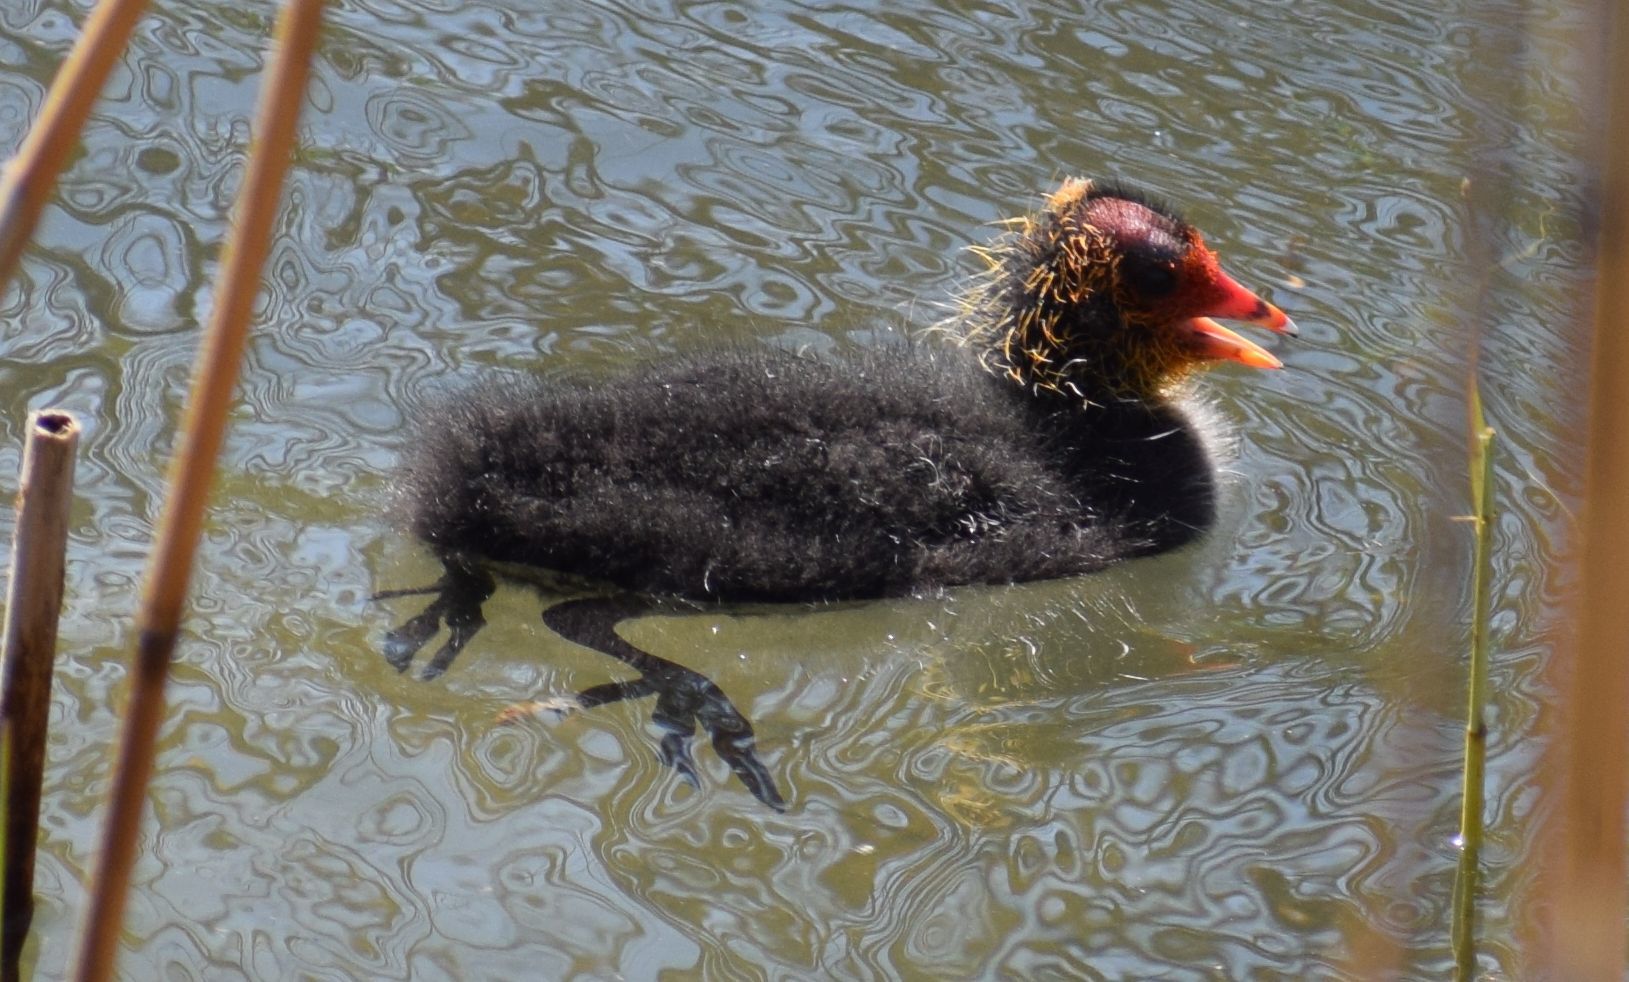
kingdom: Animalia
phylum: Chordata
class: Aves
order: Gruiformes
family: Rallidae
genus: Fulica
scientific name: Fulica atra
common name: Eurasian coot
